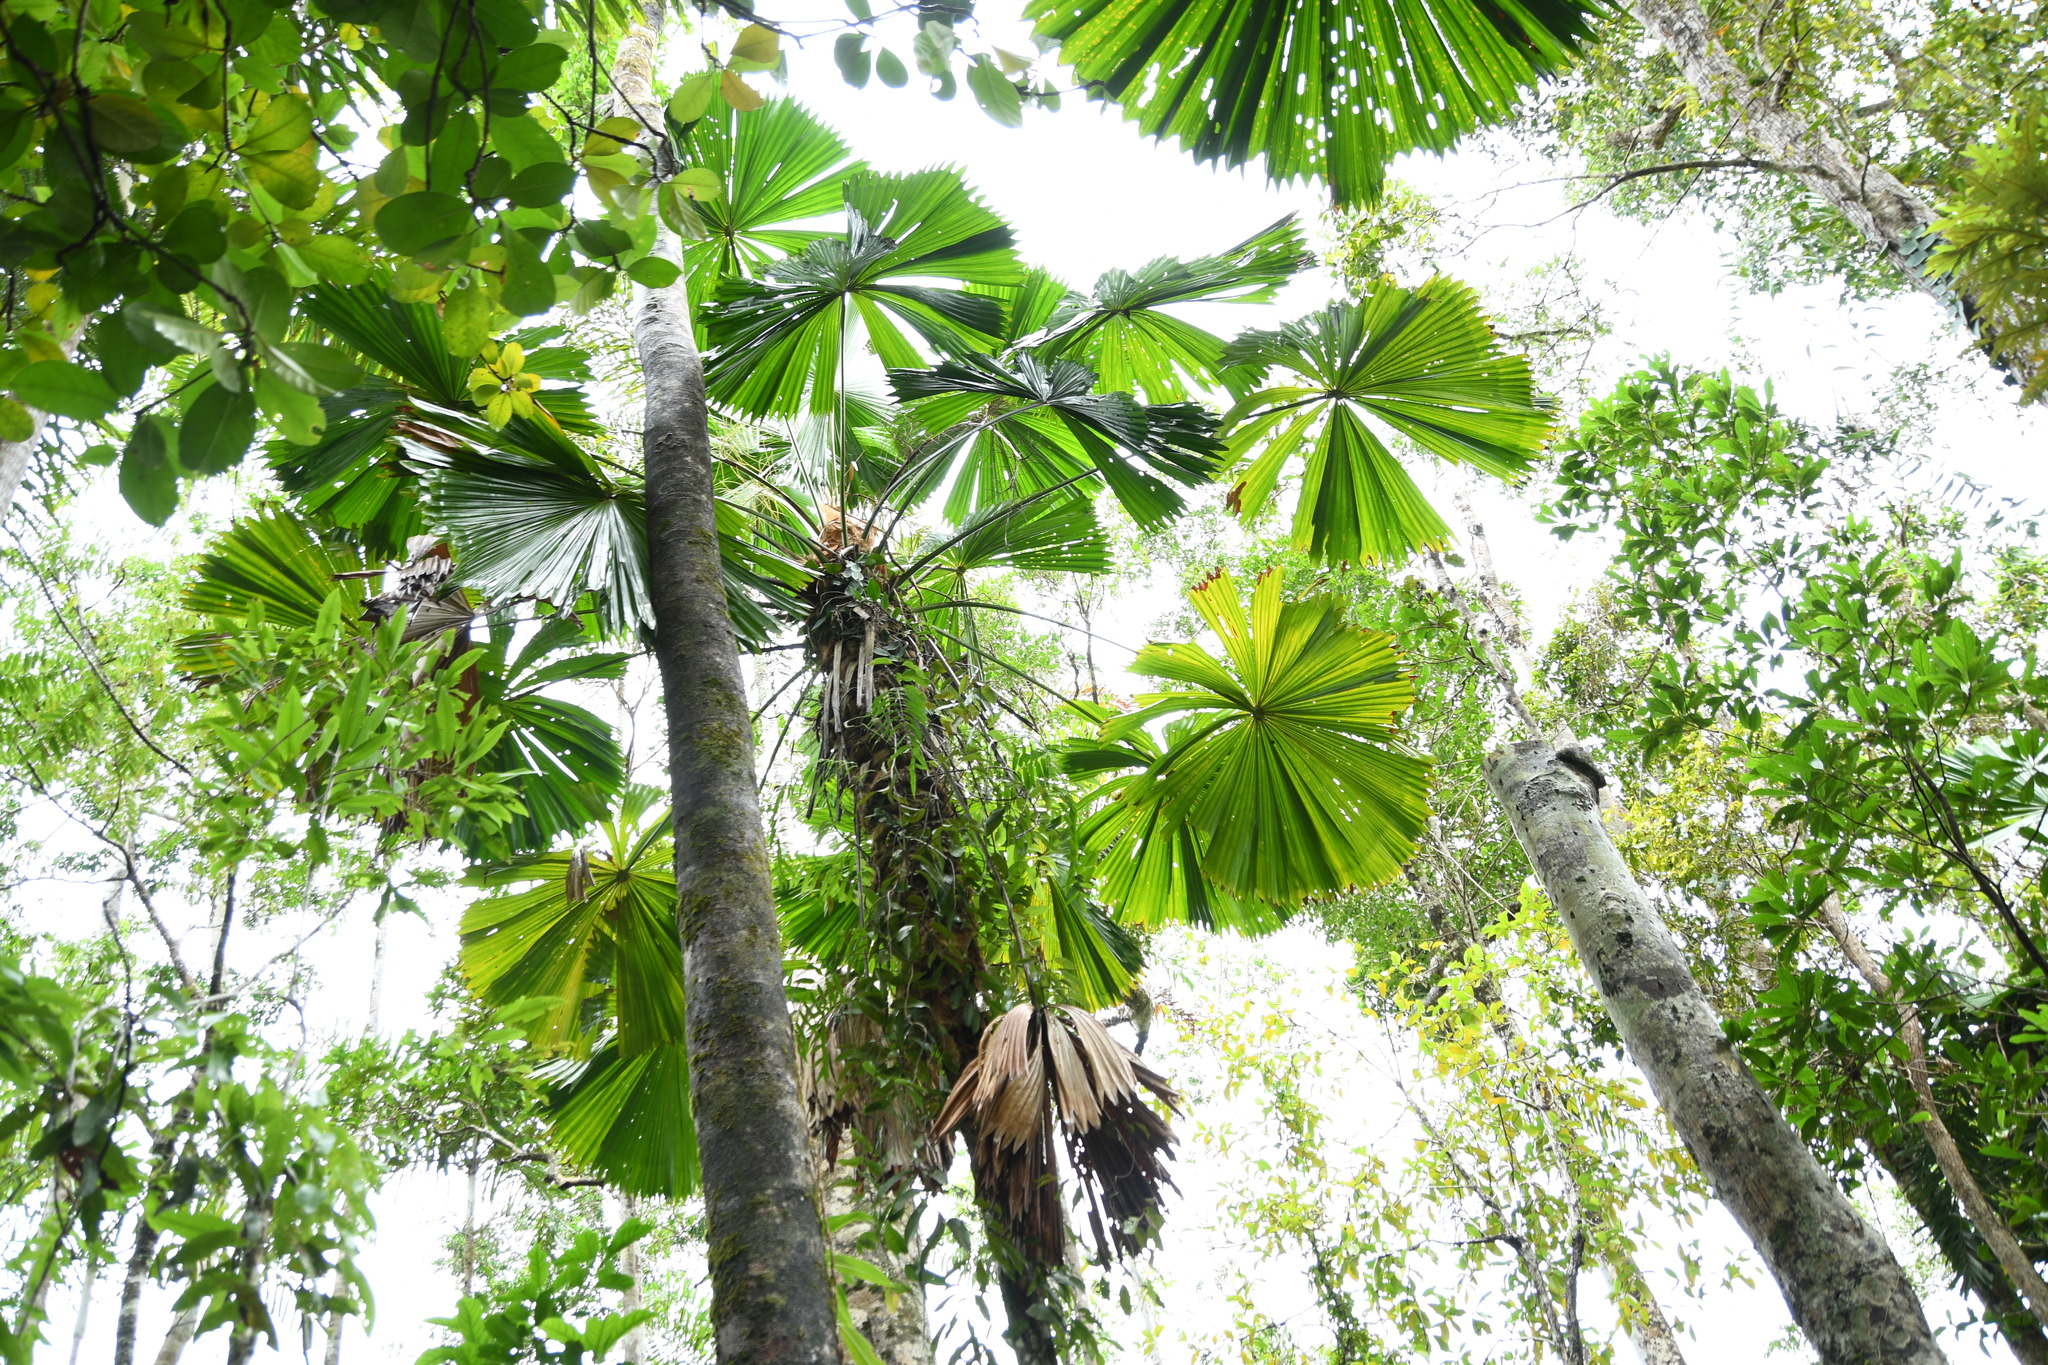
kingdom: Plantae
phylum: Tracheophyta
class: Liliopsida
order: Arecales
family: Arecaceae
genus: Licuala
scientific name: Licuala ramsayi
